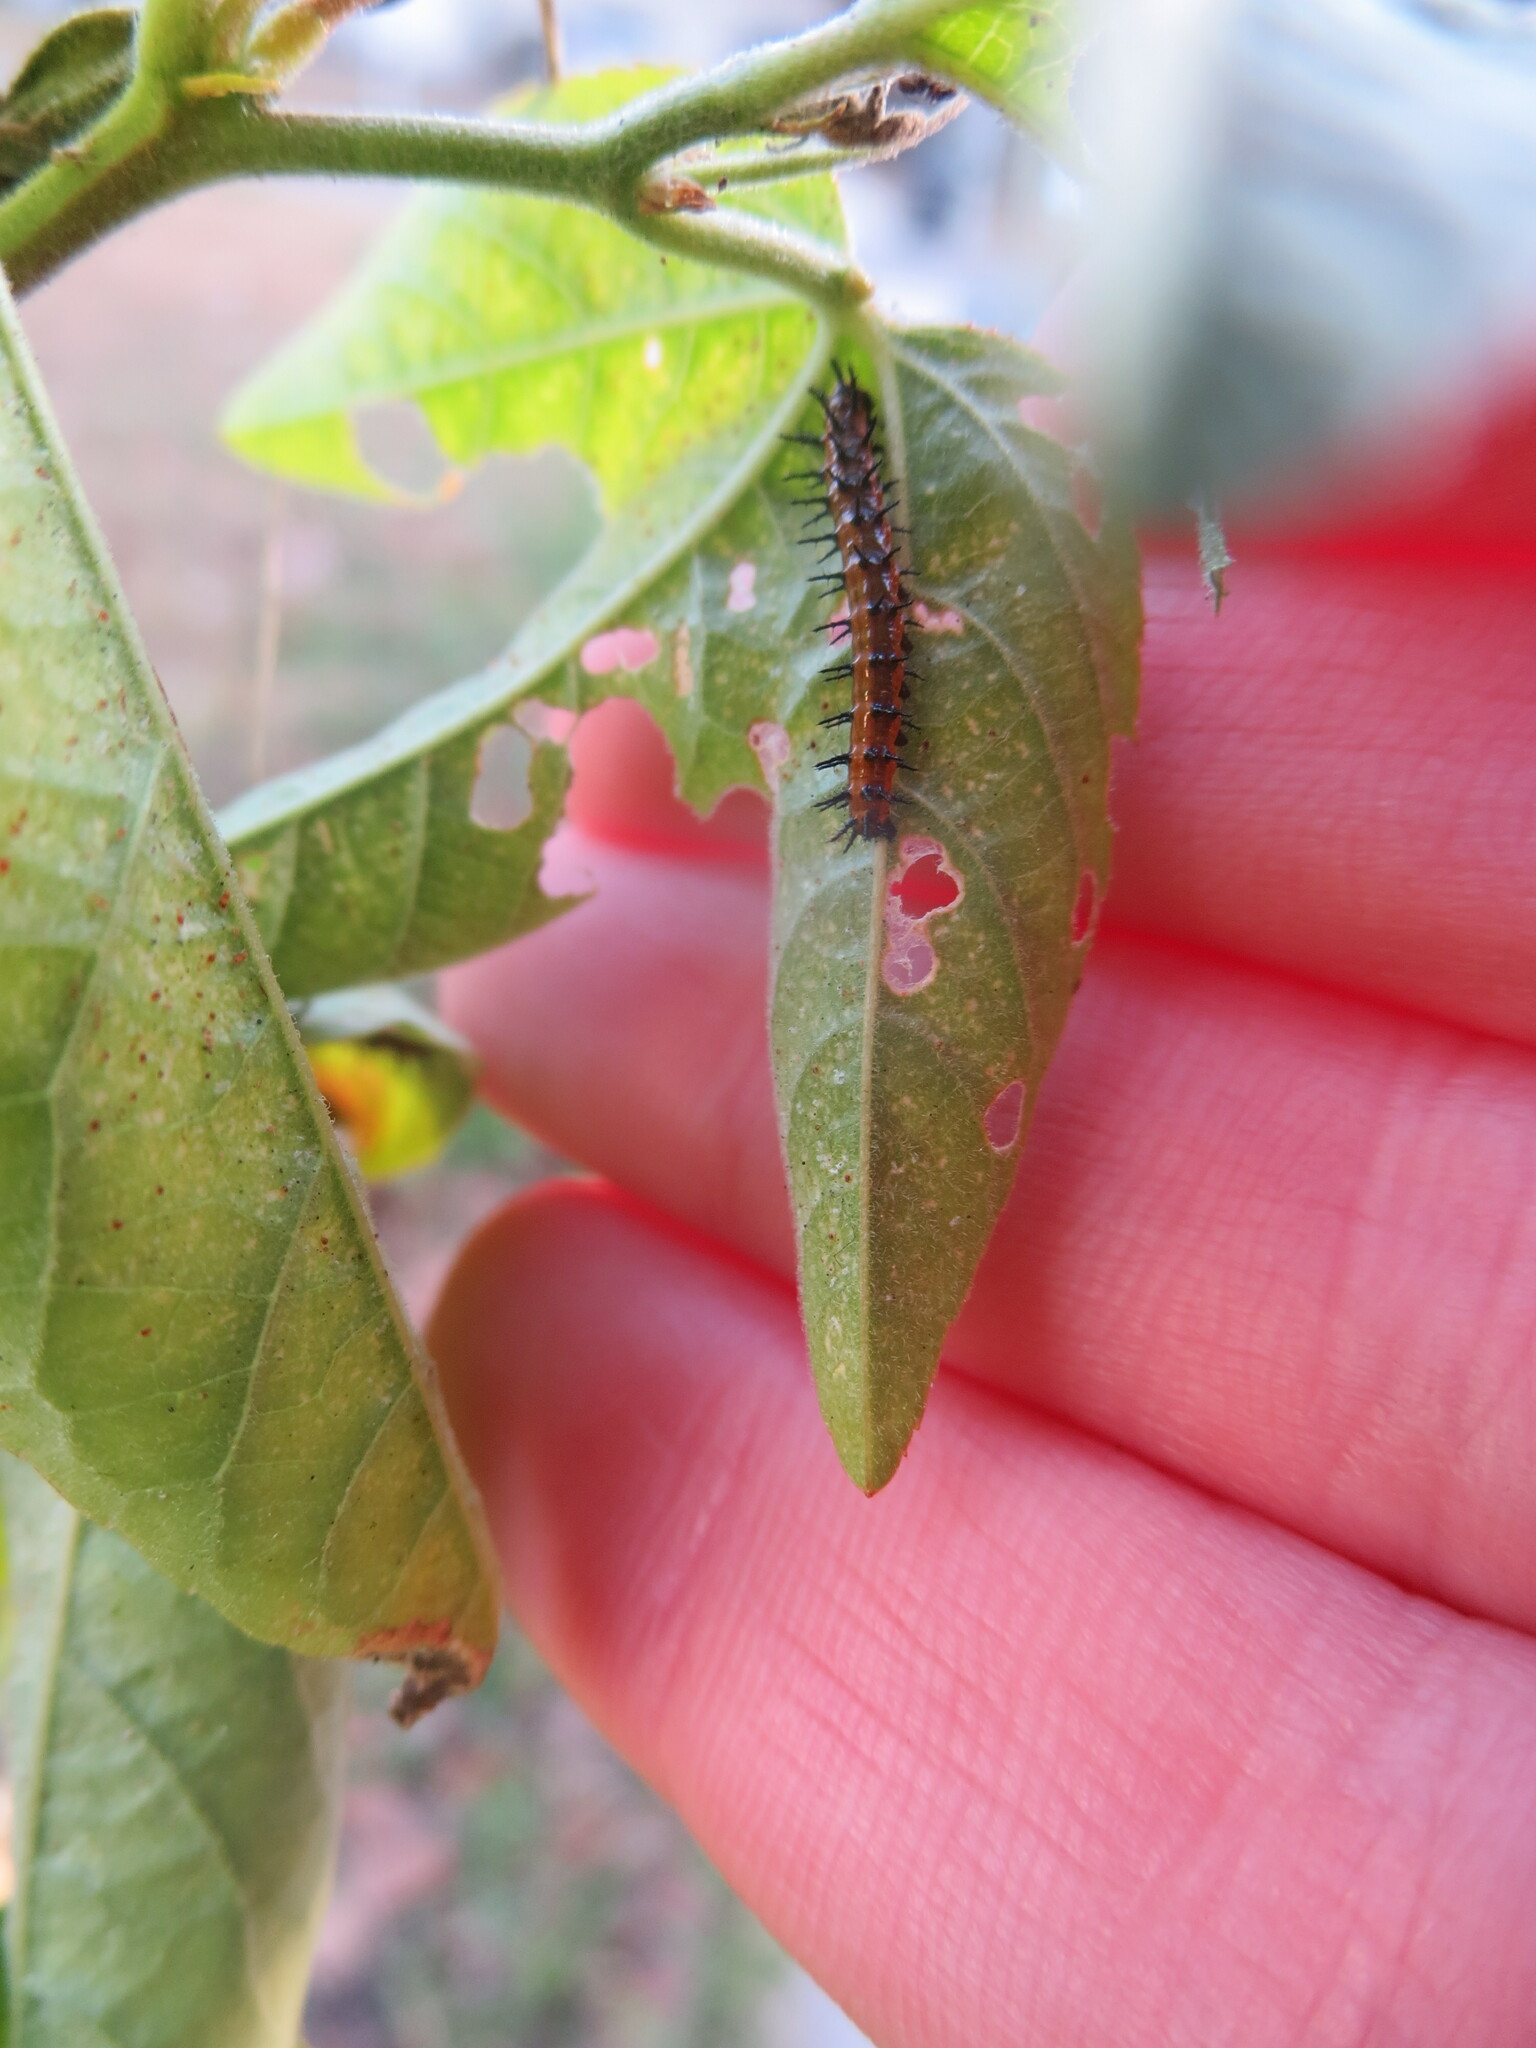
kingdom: Animalia
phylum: Arthropoda
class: Insecta
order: Lepidoptera
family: Nymphalidae
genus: Dione
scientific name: Dione vanillae
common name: Gulf fritillary
